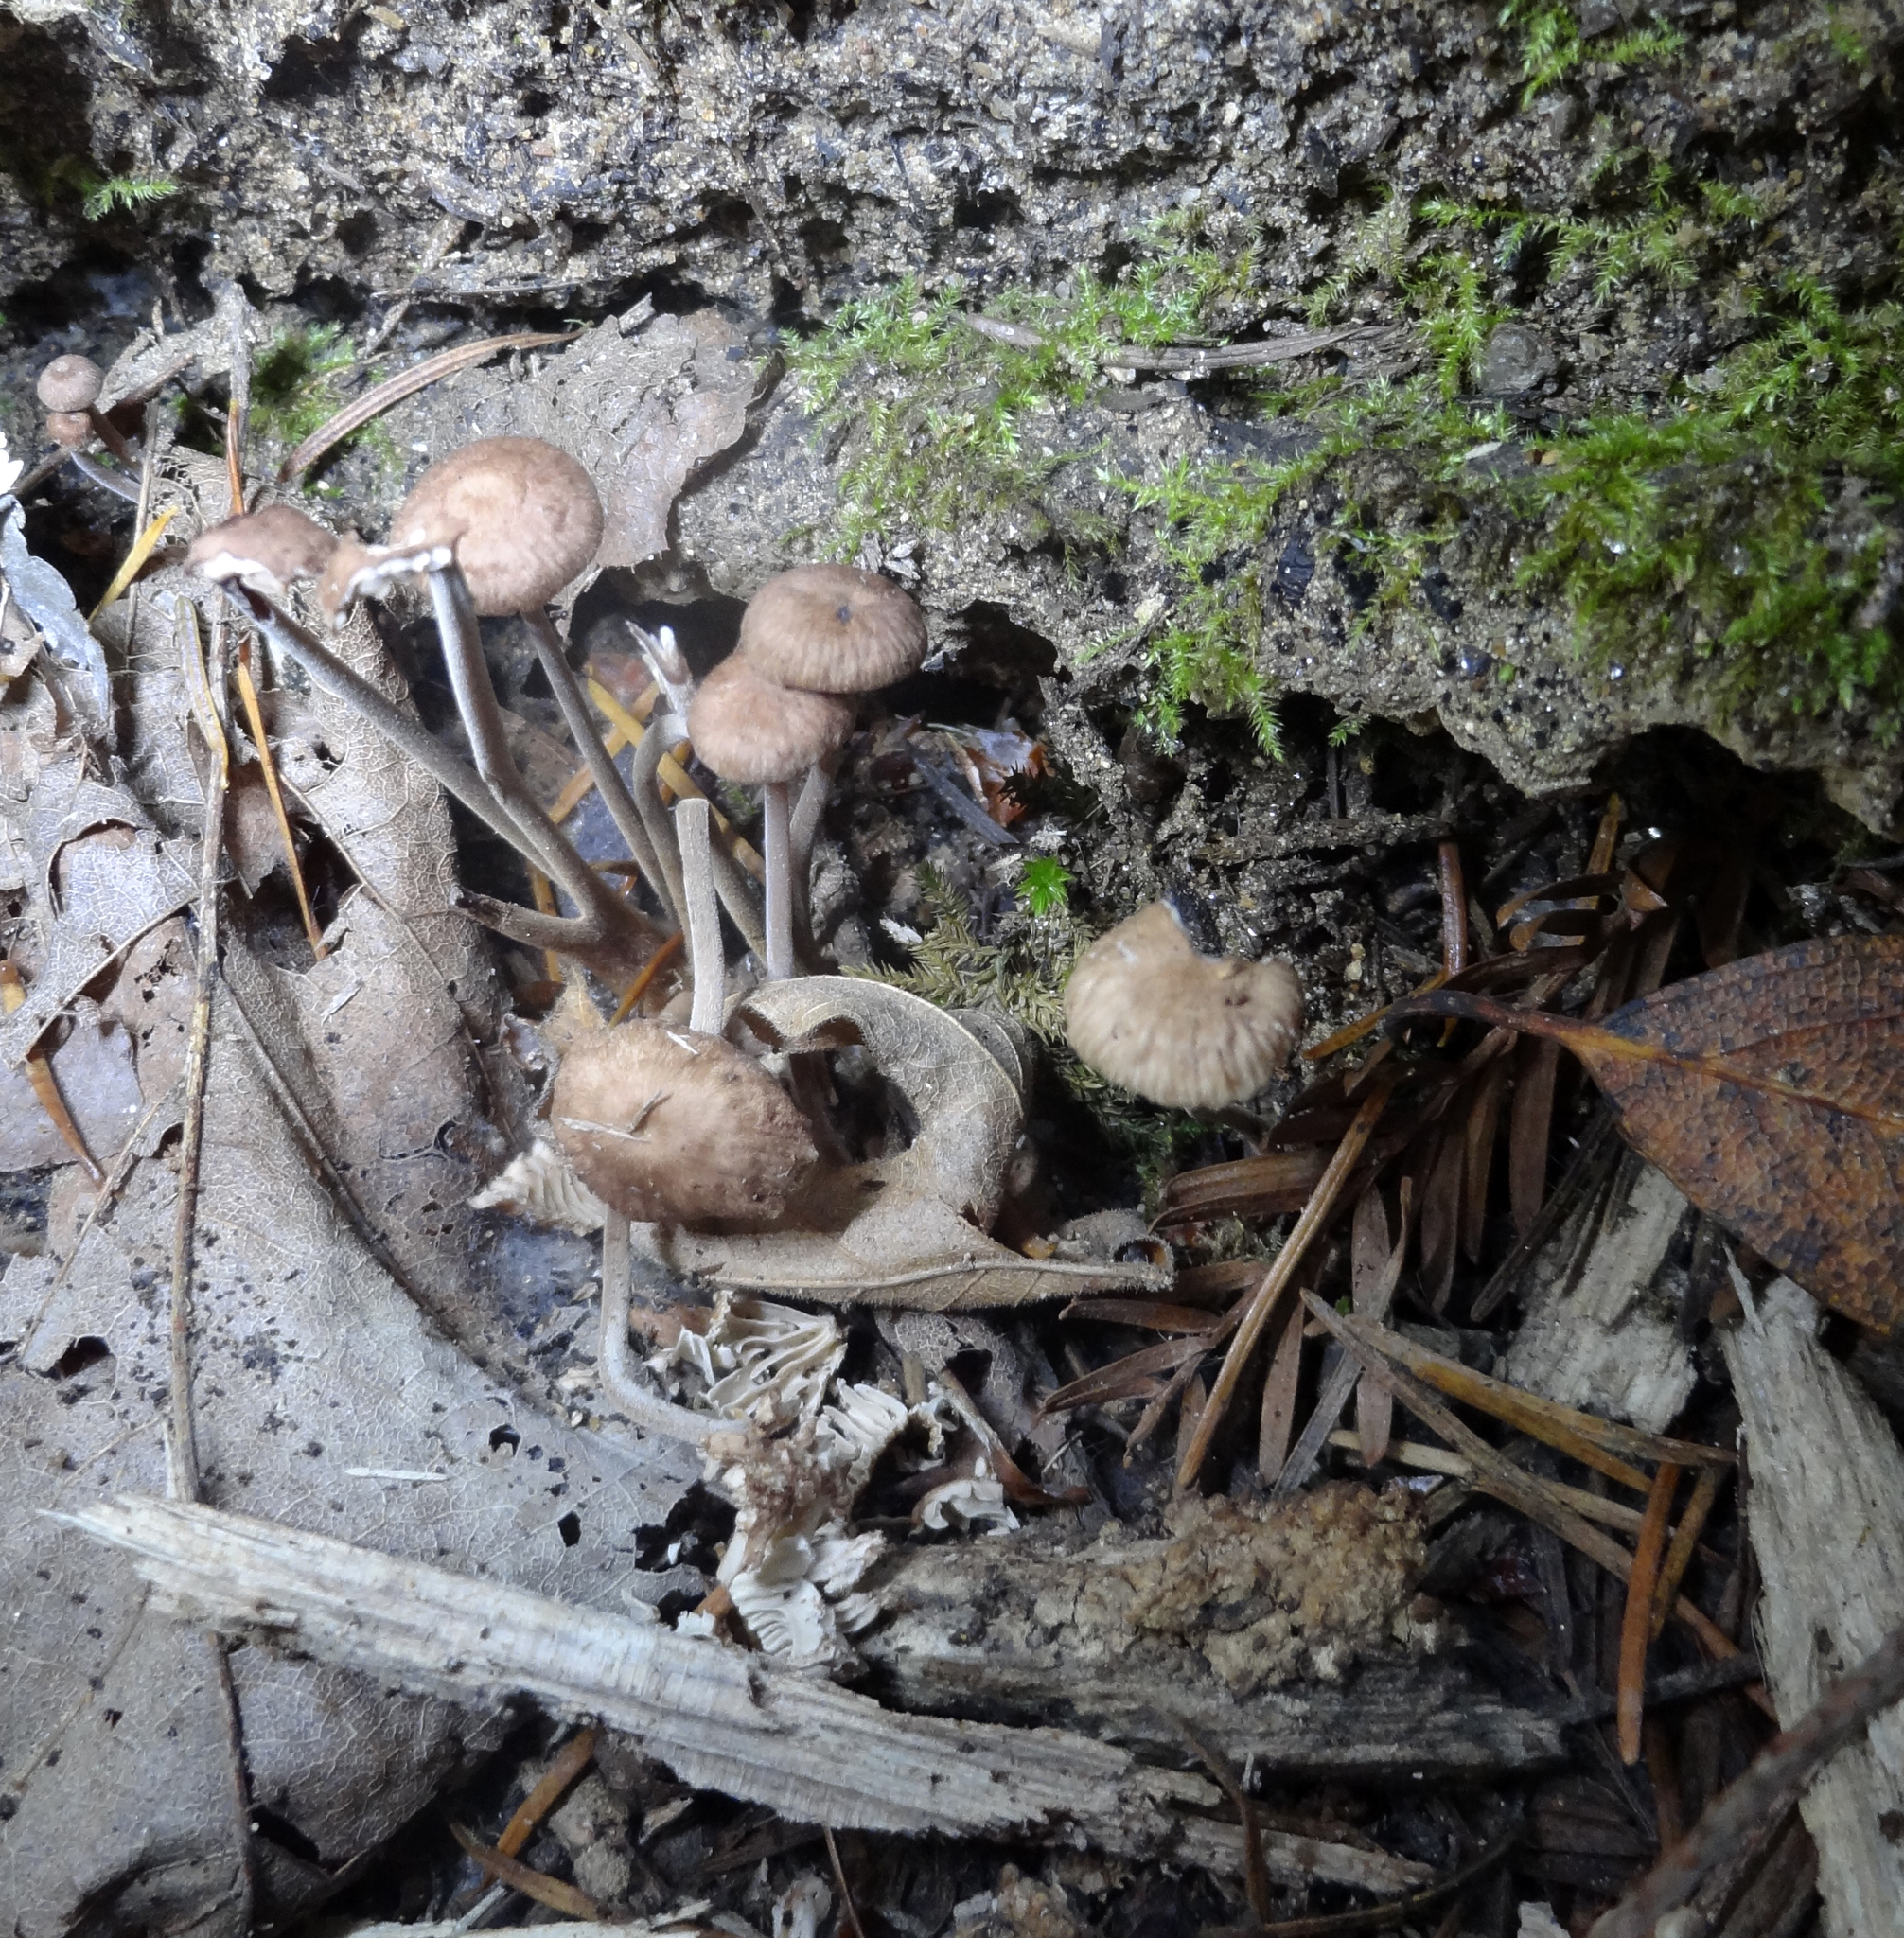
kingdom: Fungi
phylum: Basidiomycota
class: Agaricomycetes
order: Agaricales
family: Omphalotaceae
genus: Collybiopsis
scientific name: Collybiopsis villosipes
